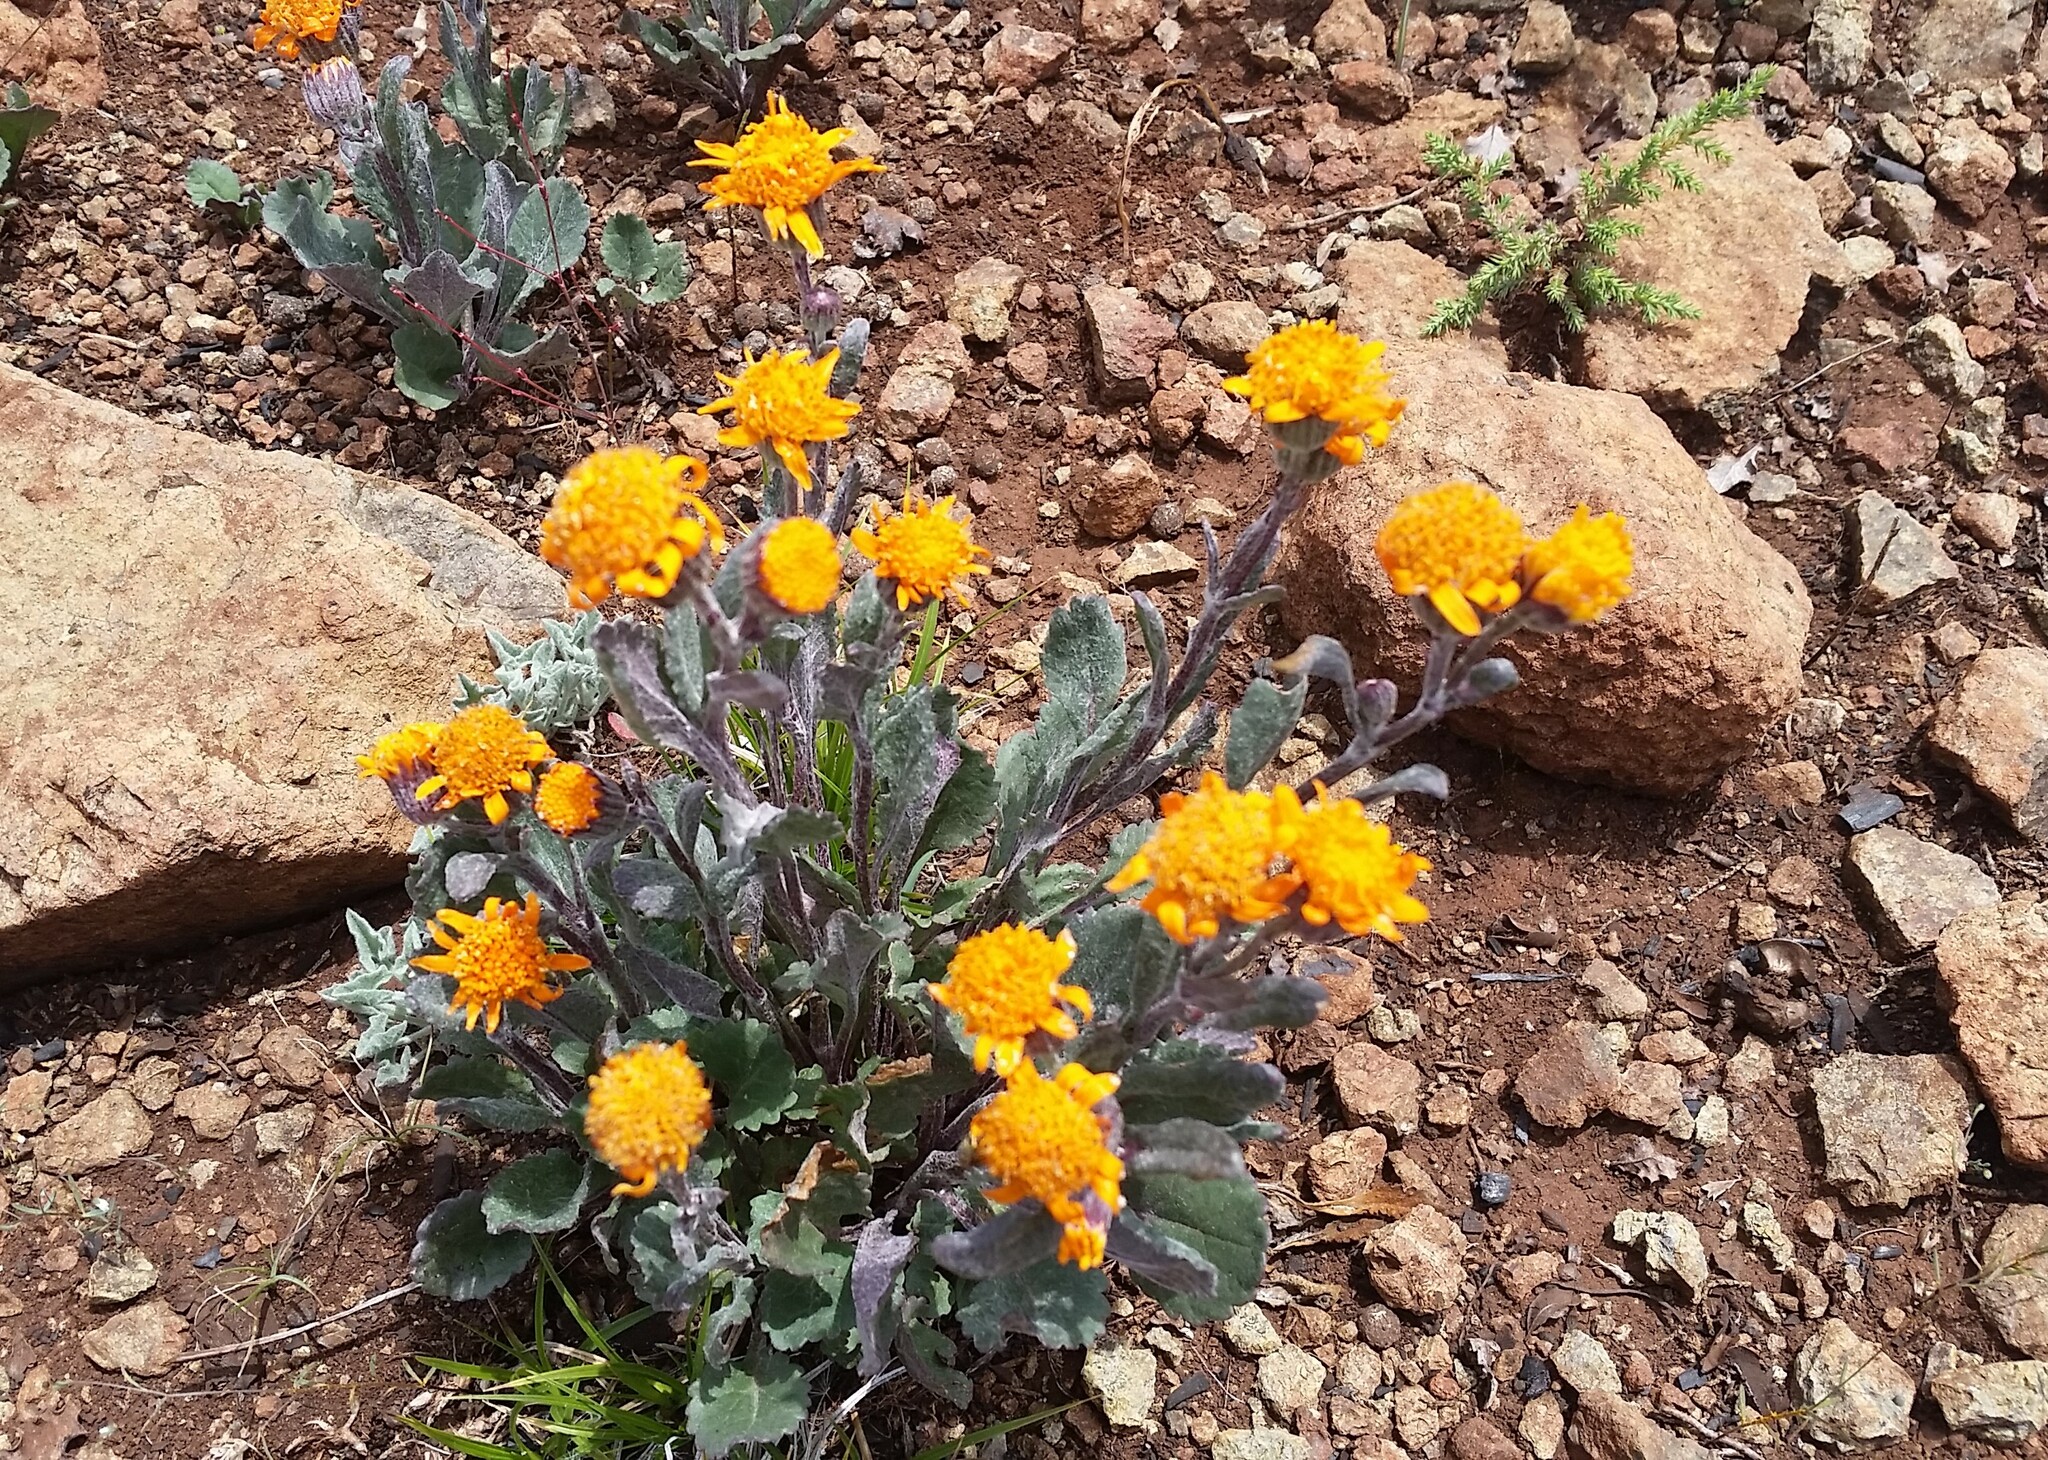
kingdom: Plantae
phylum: Tracheophyta
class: Magnoliopsida
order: Asterales
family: Asteraceae
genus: Packera
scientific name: Packera greenei
